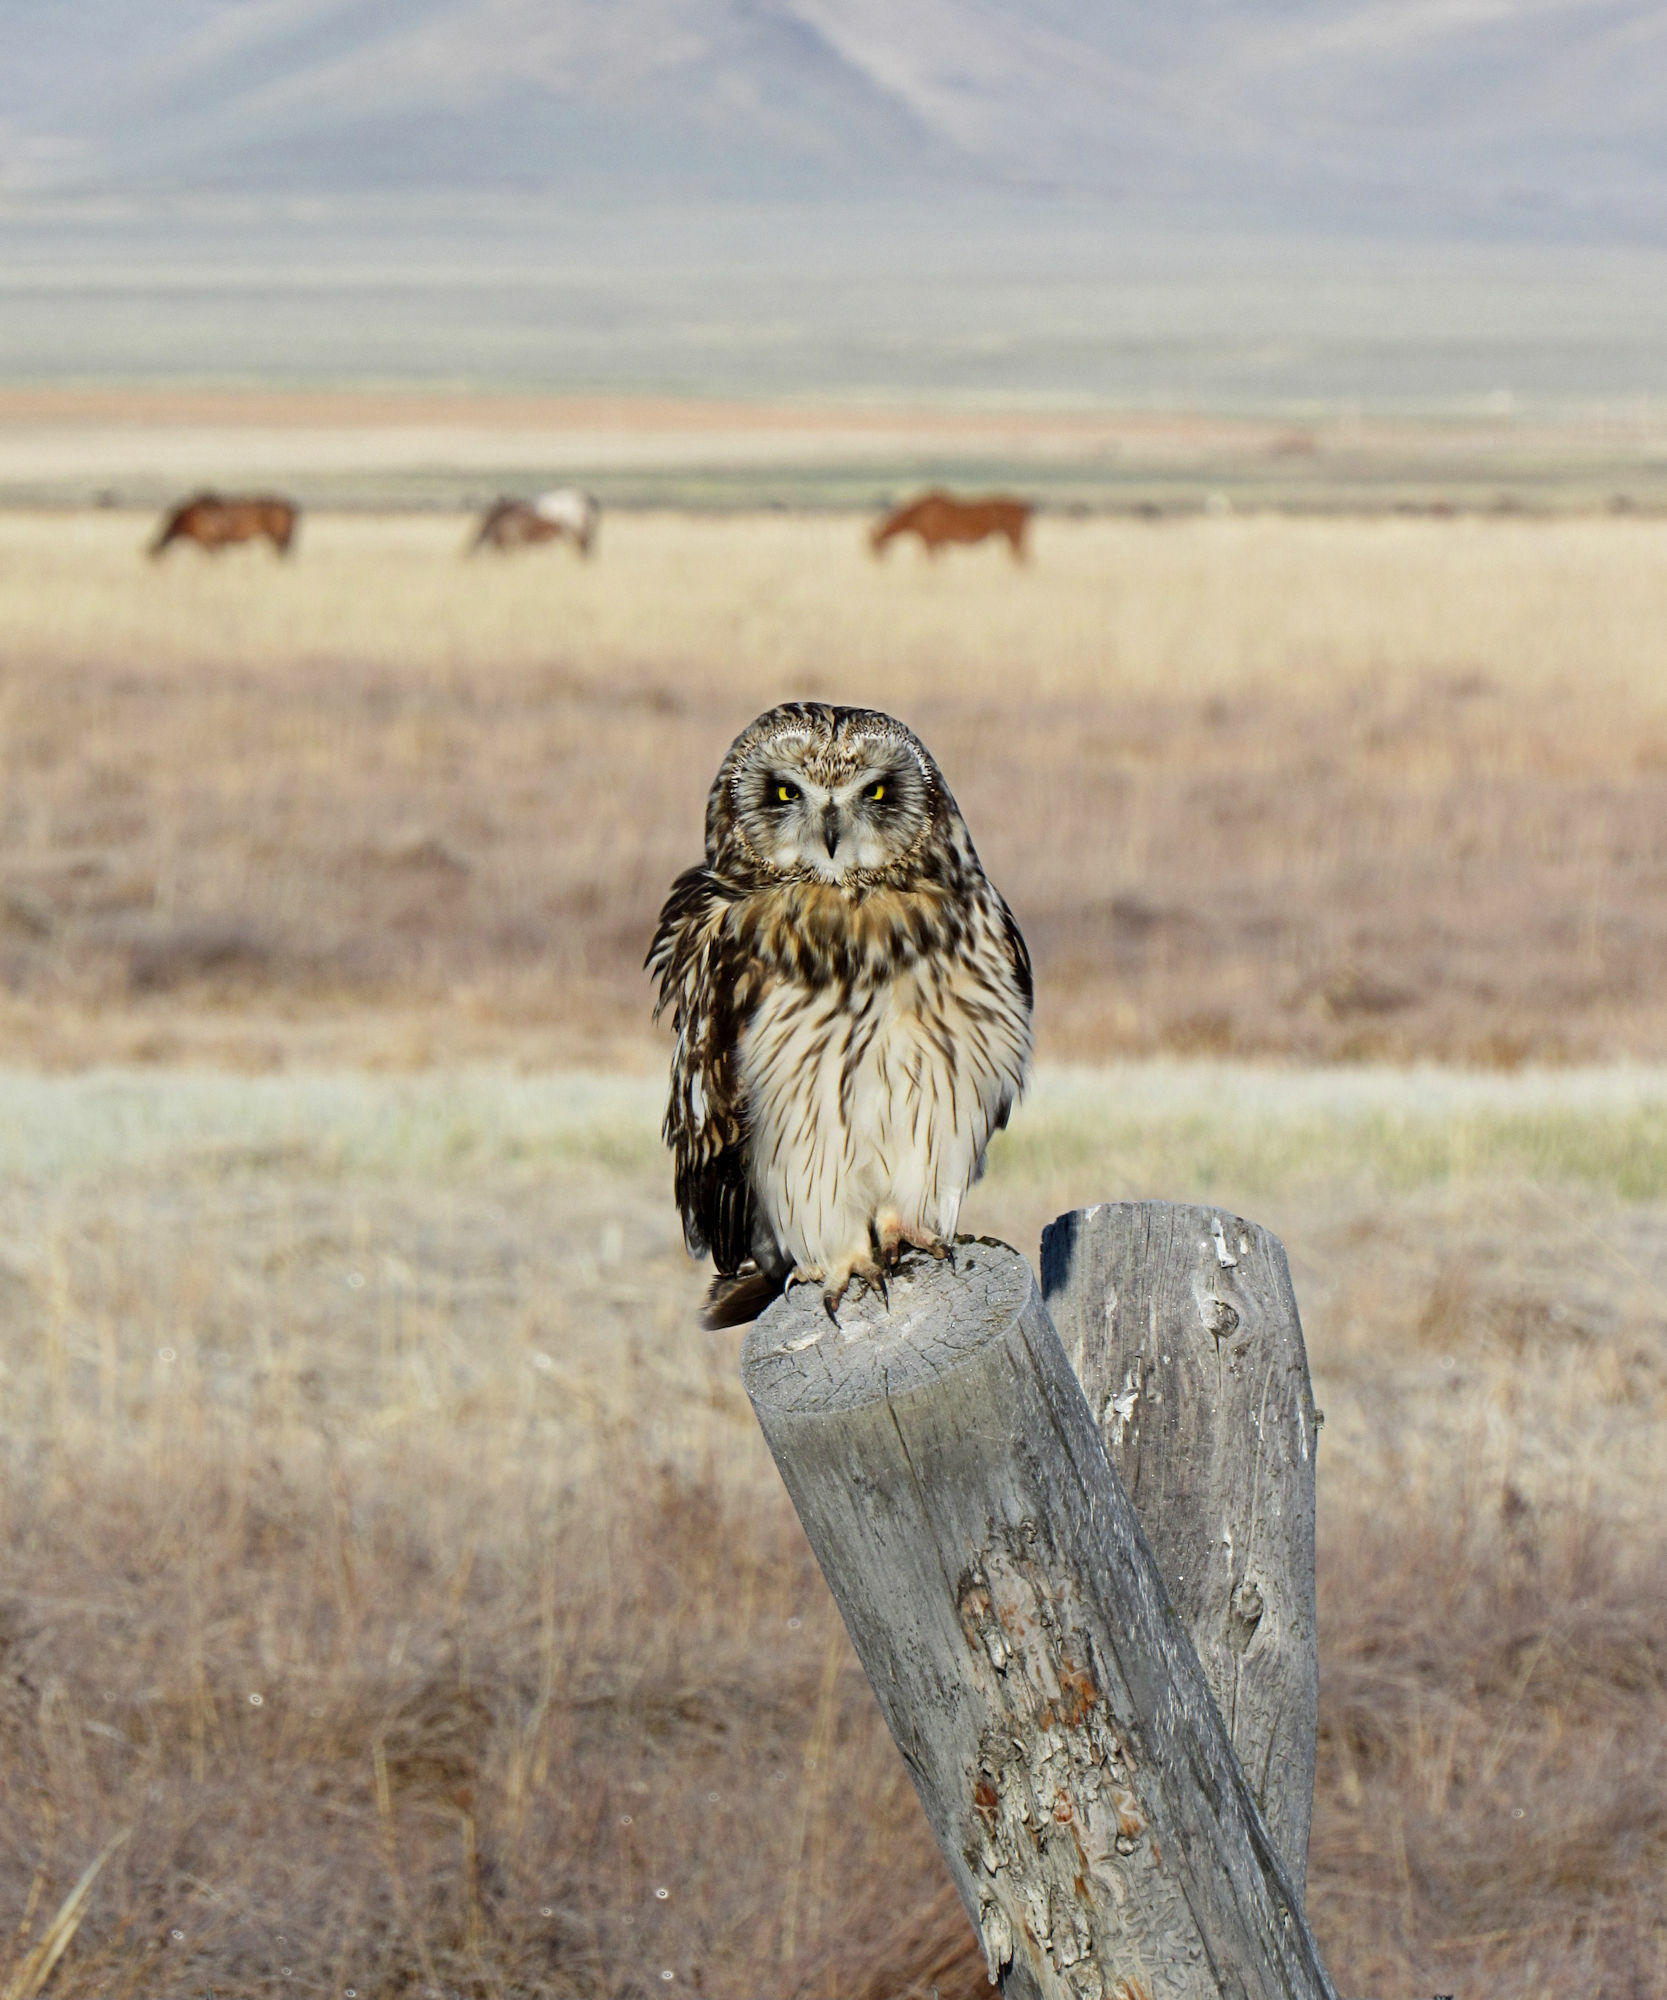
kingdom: Animalia
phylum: Chordata
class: Aves
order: Strigiformes
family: Strigidae
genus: Asio
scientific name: Asio flammeus
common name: Short-eared owl
